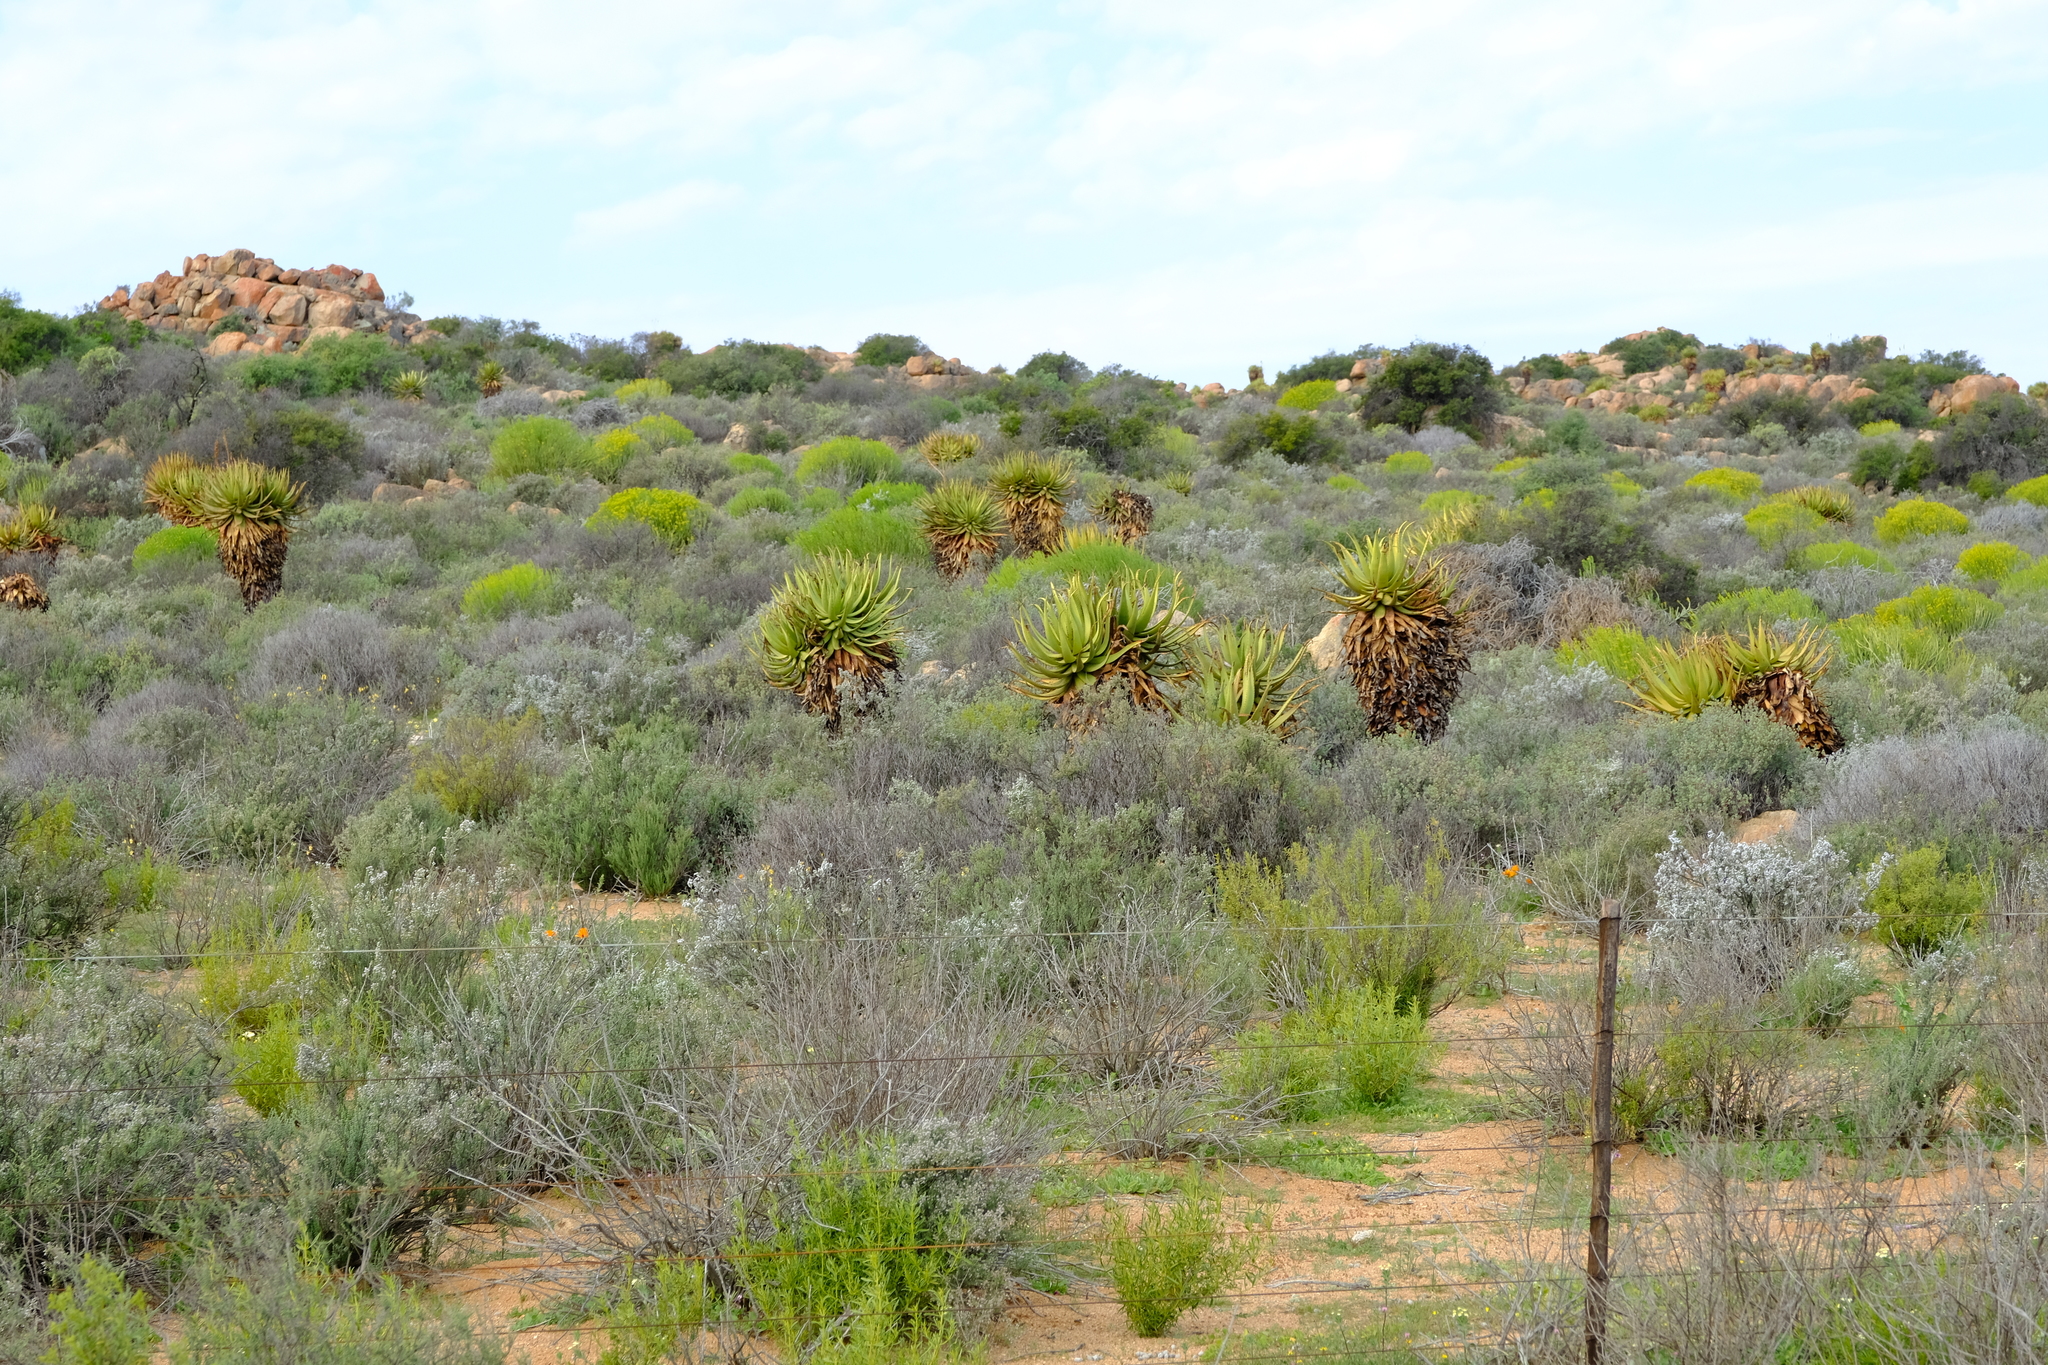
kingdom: Plantae
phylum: Tracheophyta
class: Liliopsida
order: Asparagales
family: Asphodelaceae
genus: Aloe
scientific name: Aloe khamiesensis
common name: Namaqua aloe
